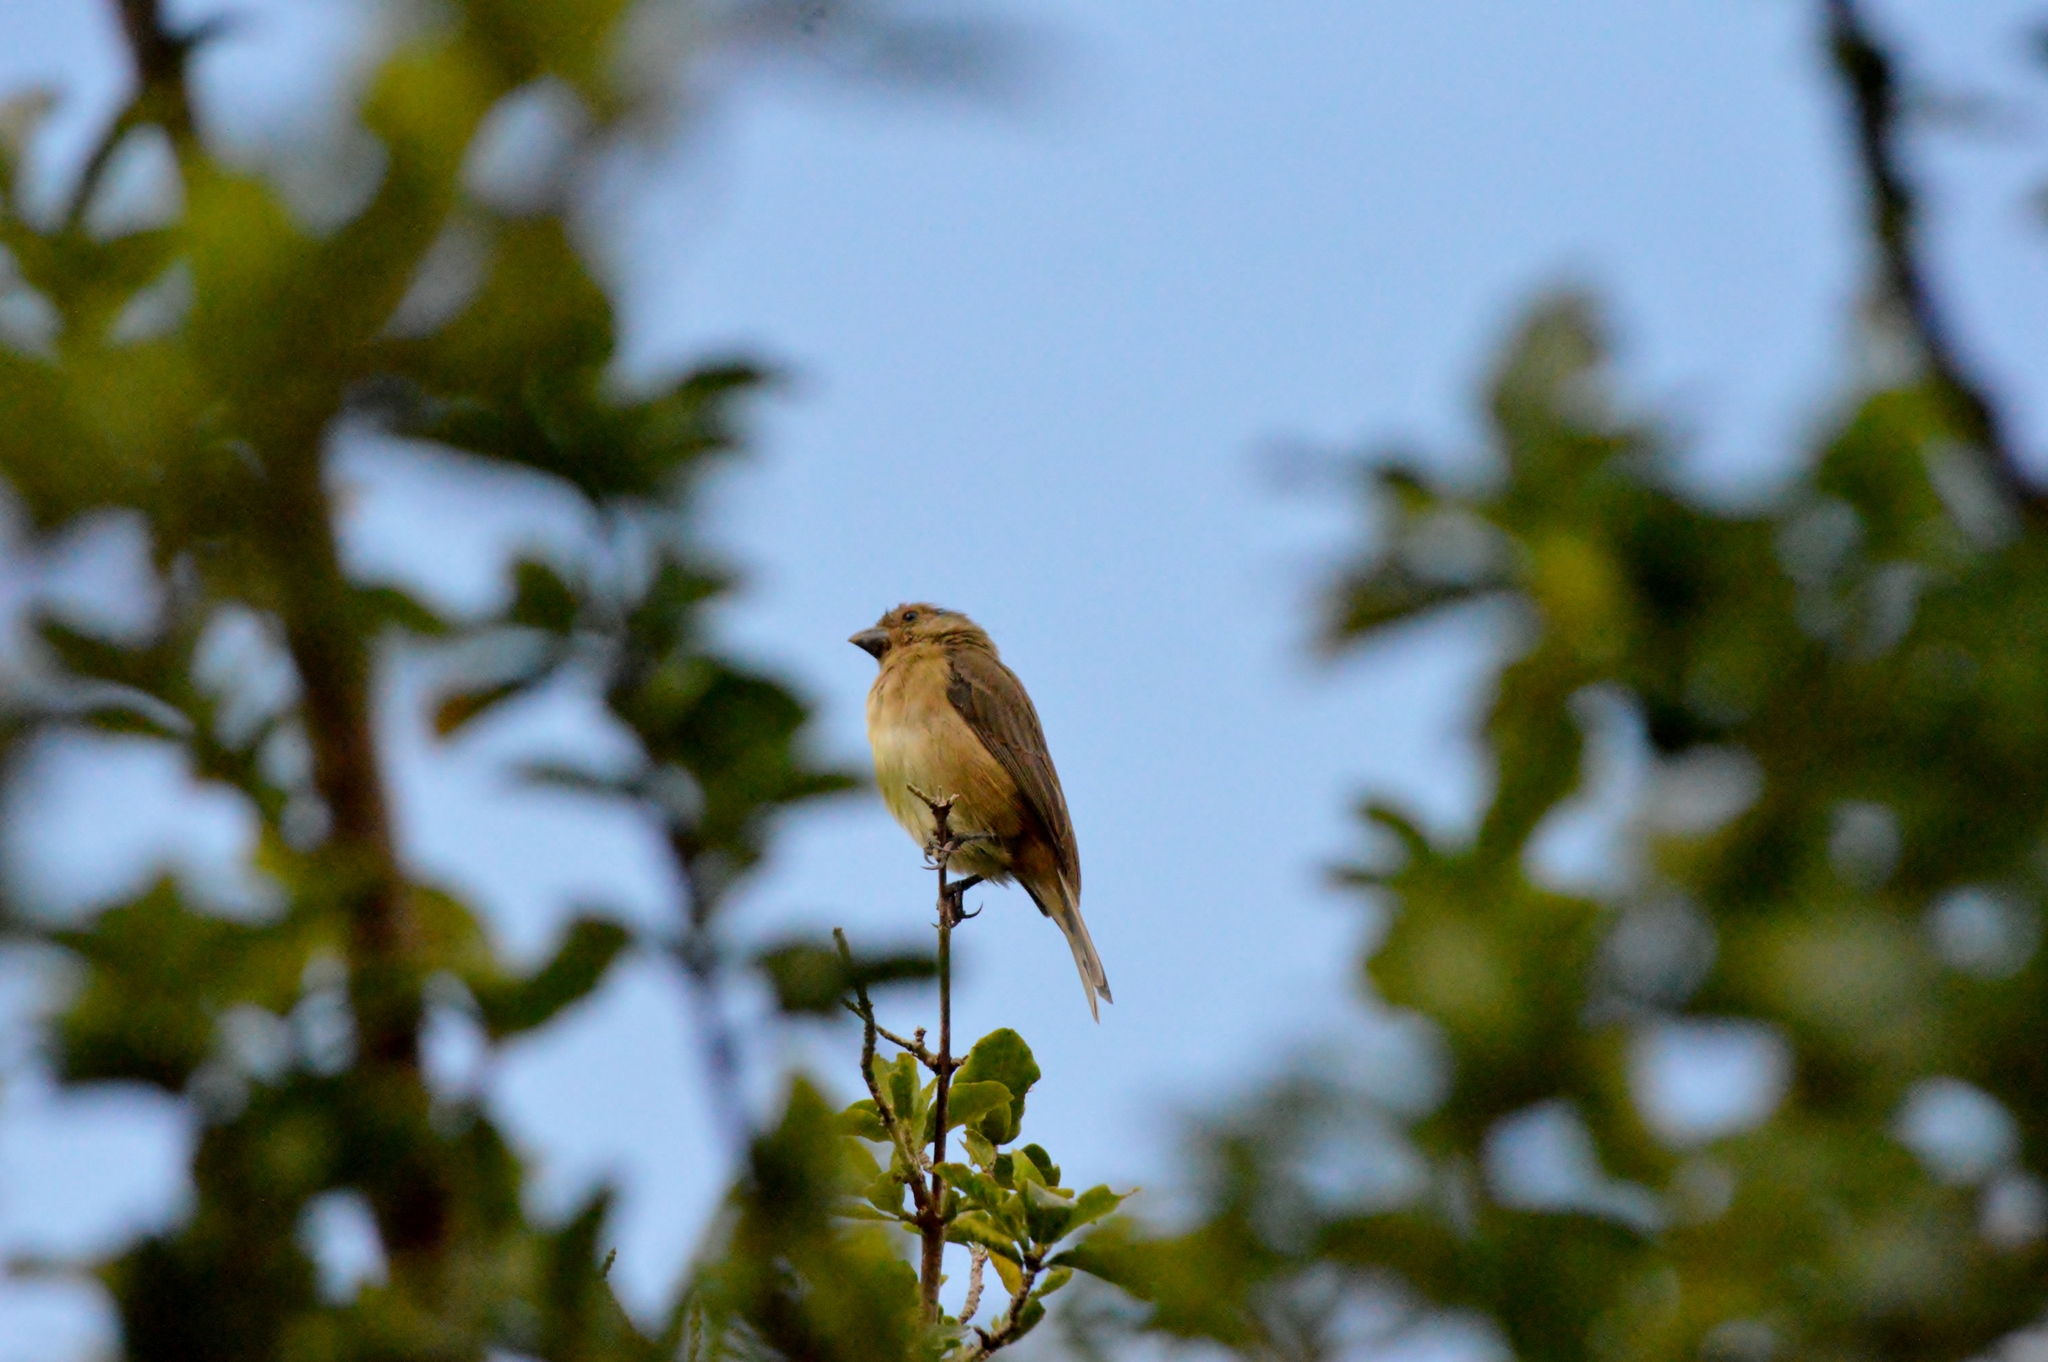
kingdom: Animalia
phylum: Chordata
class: Aves
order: Passeriformes
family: Thraupidae
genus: Sporophila
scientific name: Sporophila nigricollis
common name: Yellow-bellied seedeater
